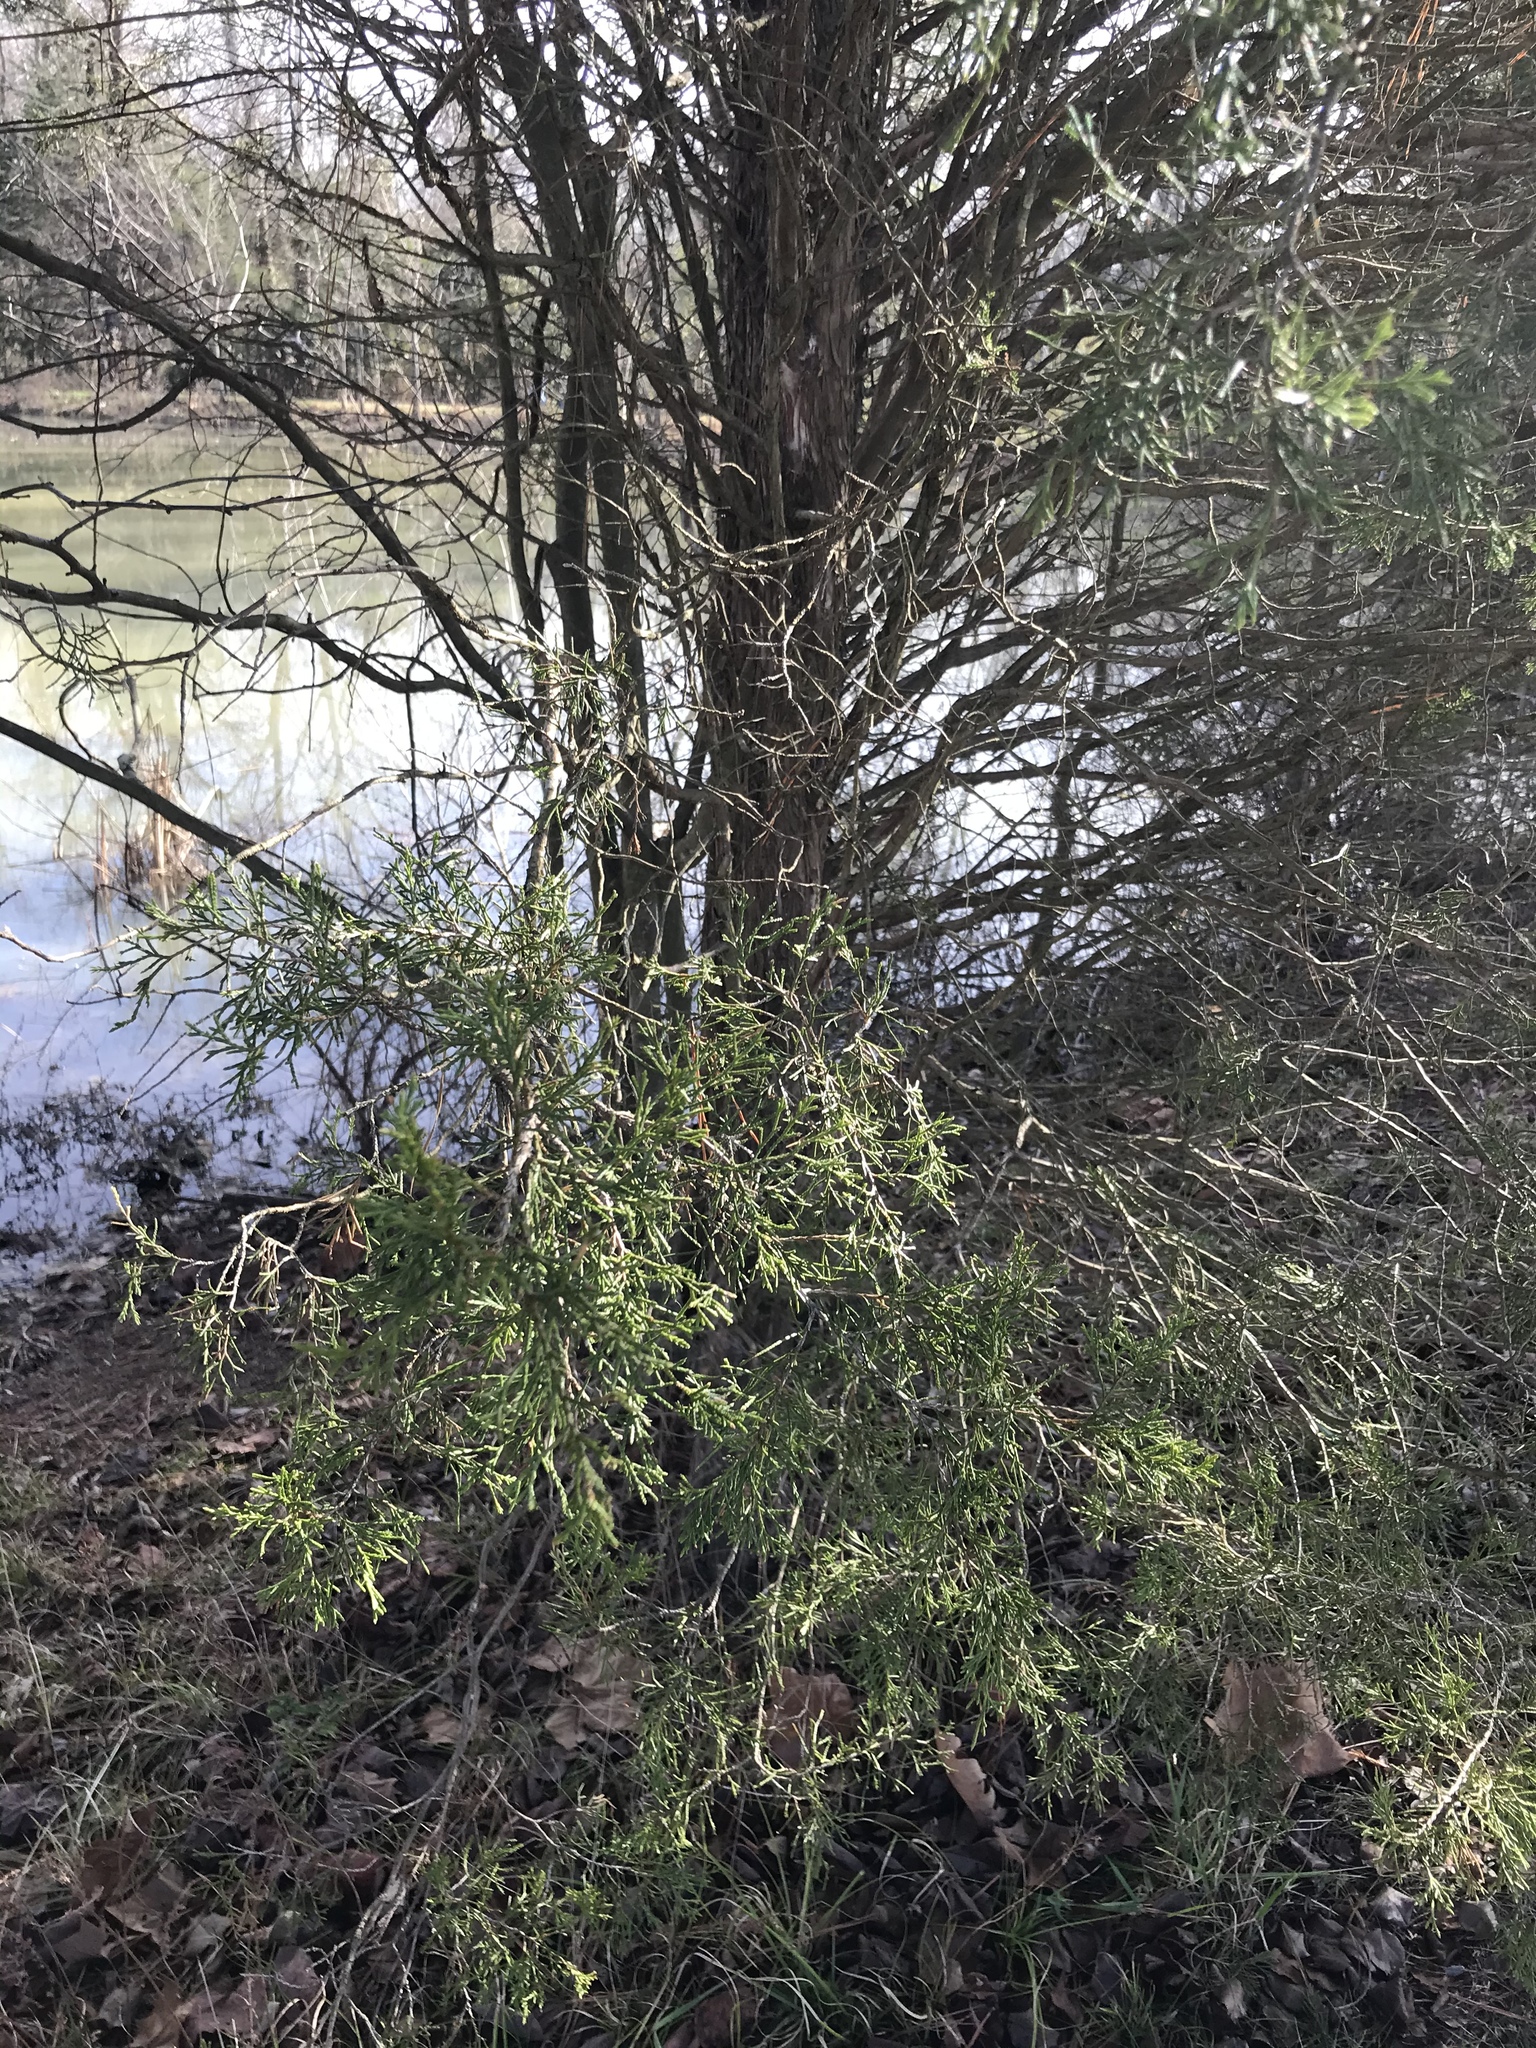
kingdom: Plantae
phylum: Tracheophyta
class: Pinopsida
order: Pinales
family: Cupressaceae
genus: Juniperus
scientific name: Juniperus virginiana
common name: Red juniper
